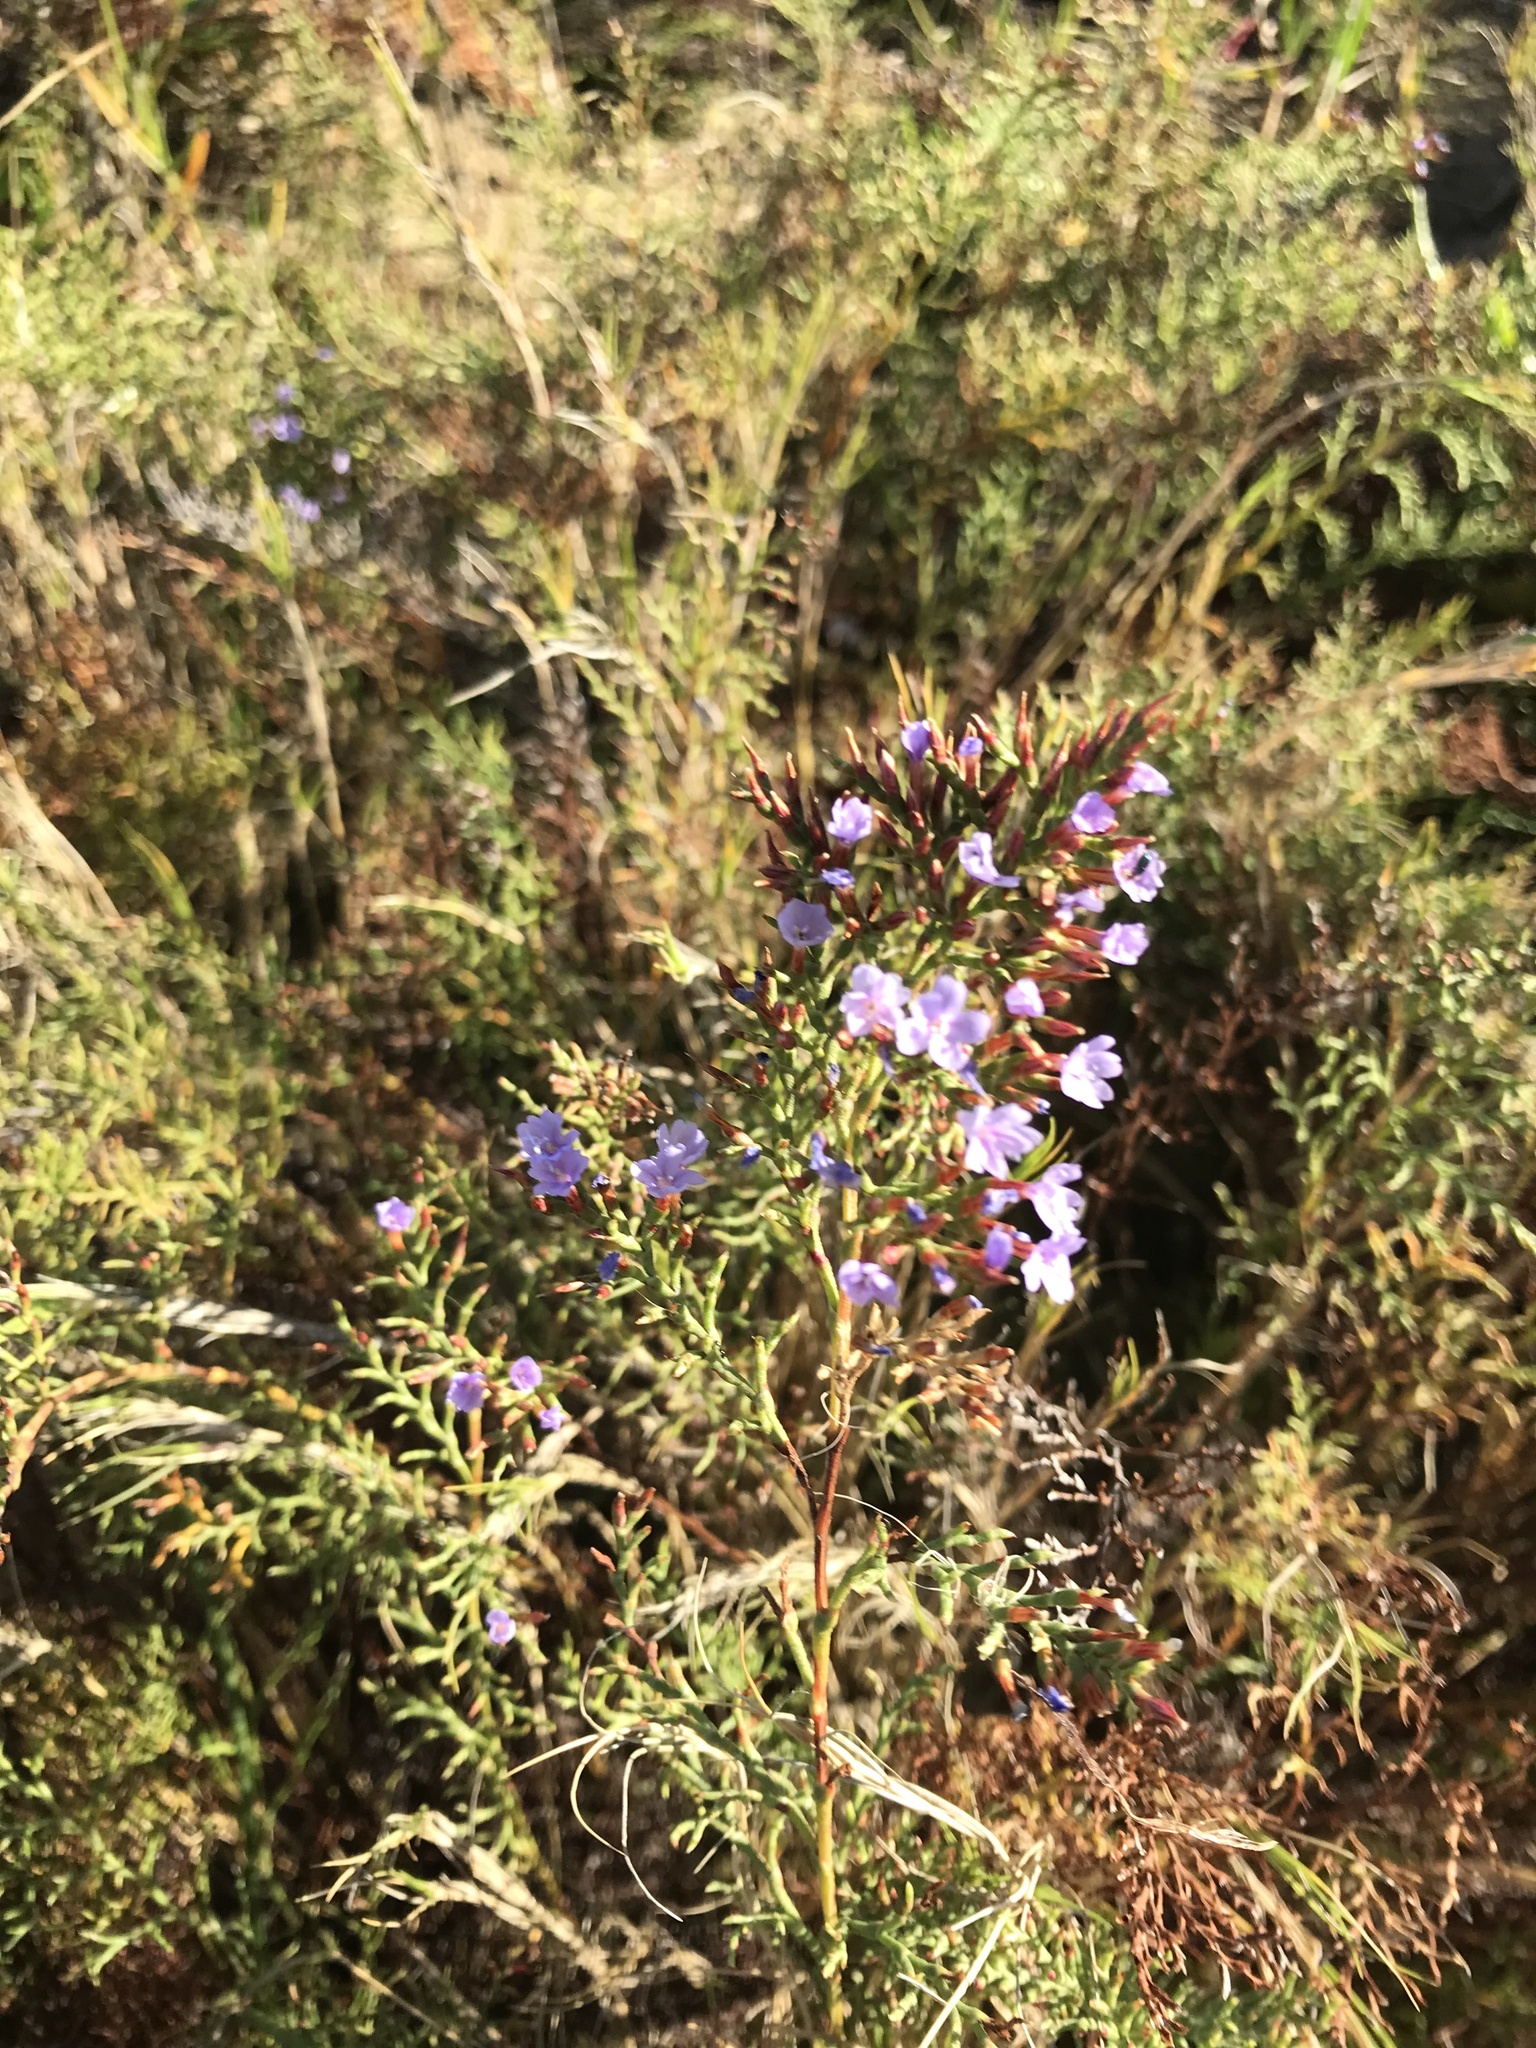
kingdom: Plantae
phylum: Tracheophyta
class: Magnoliopsida
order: Caryophyllales
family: Plumbaginaceae
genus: Limonium
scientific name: Limonium scabrum
